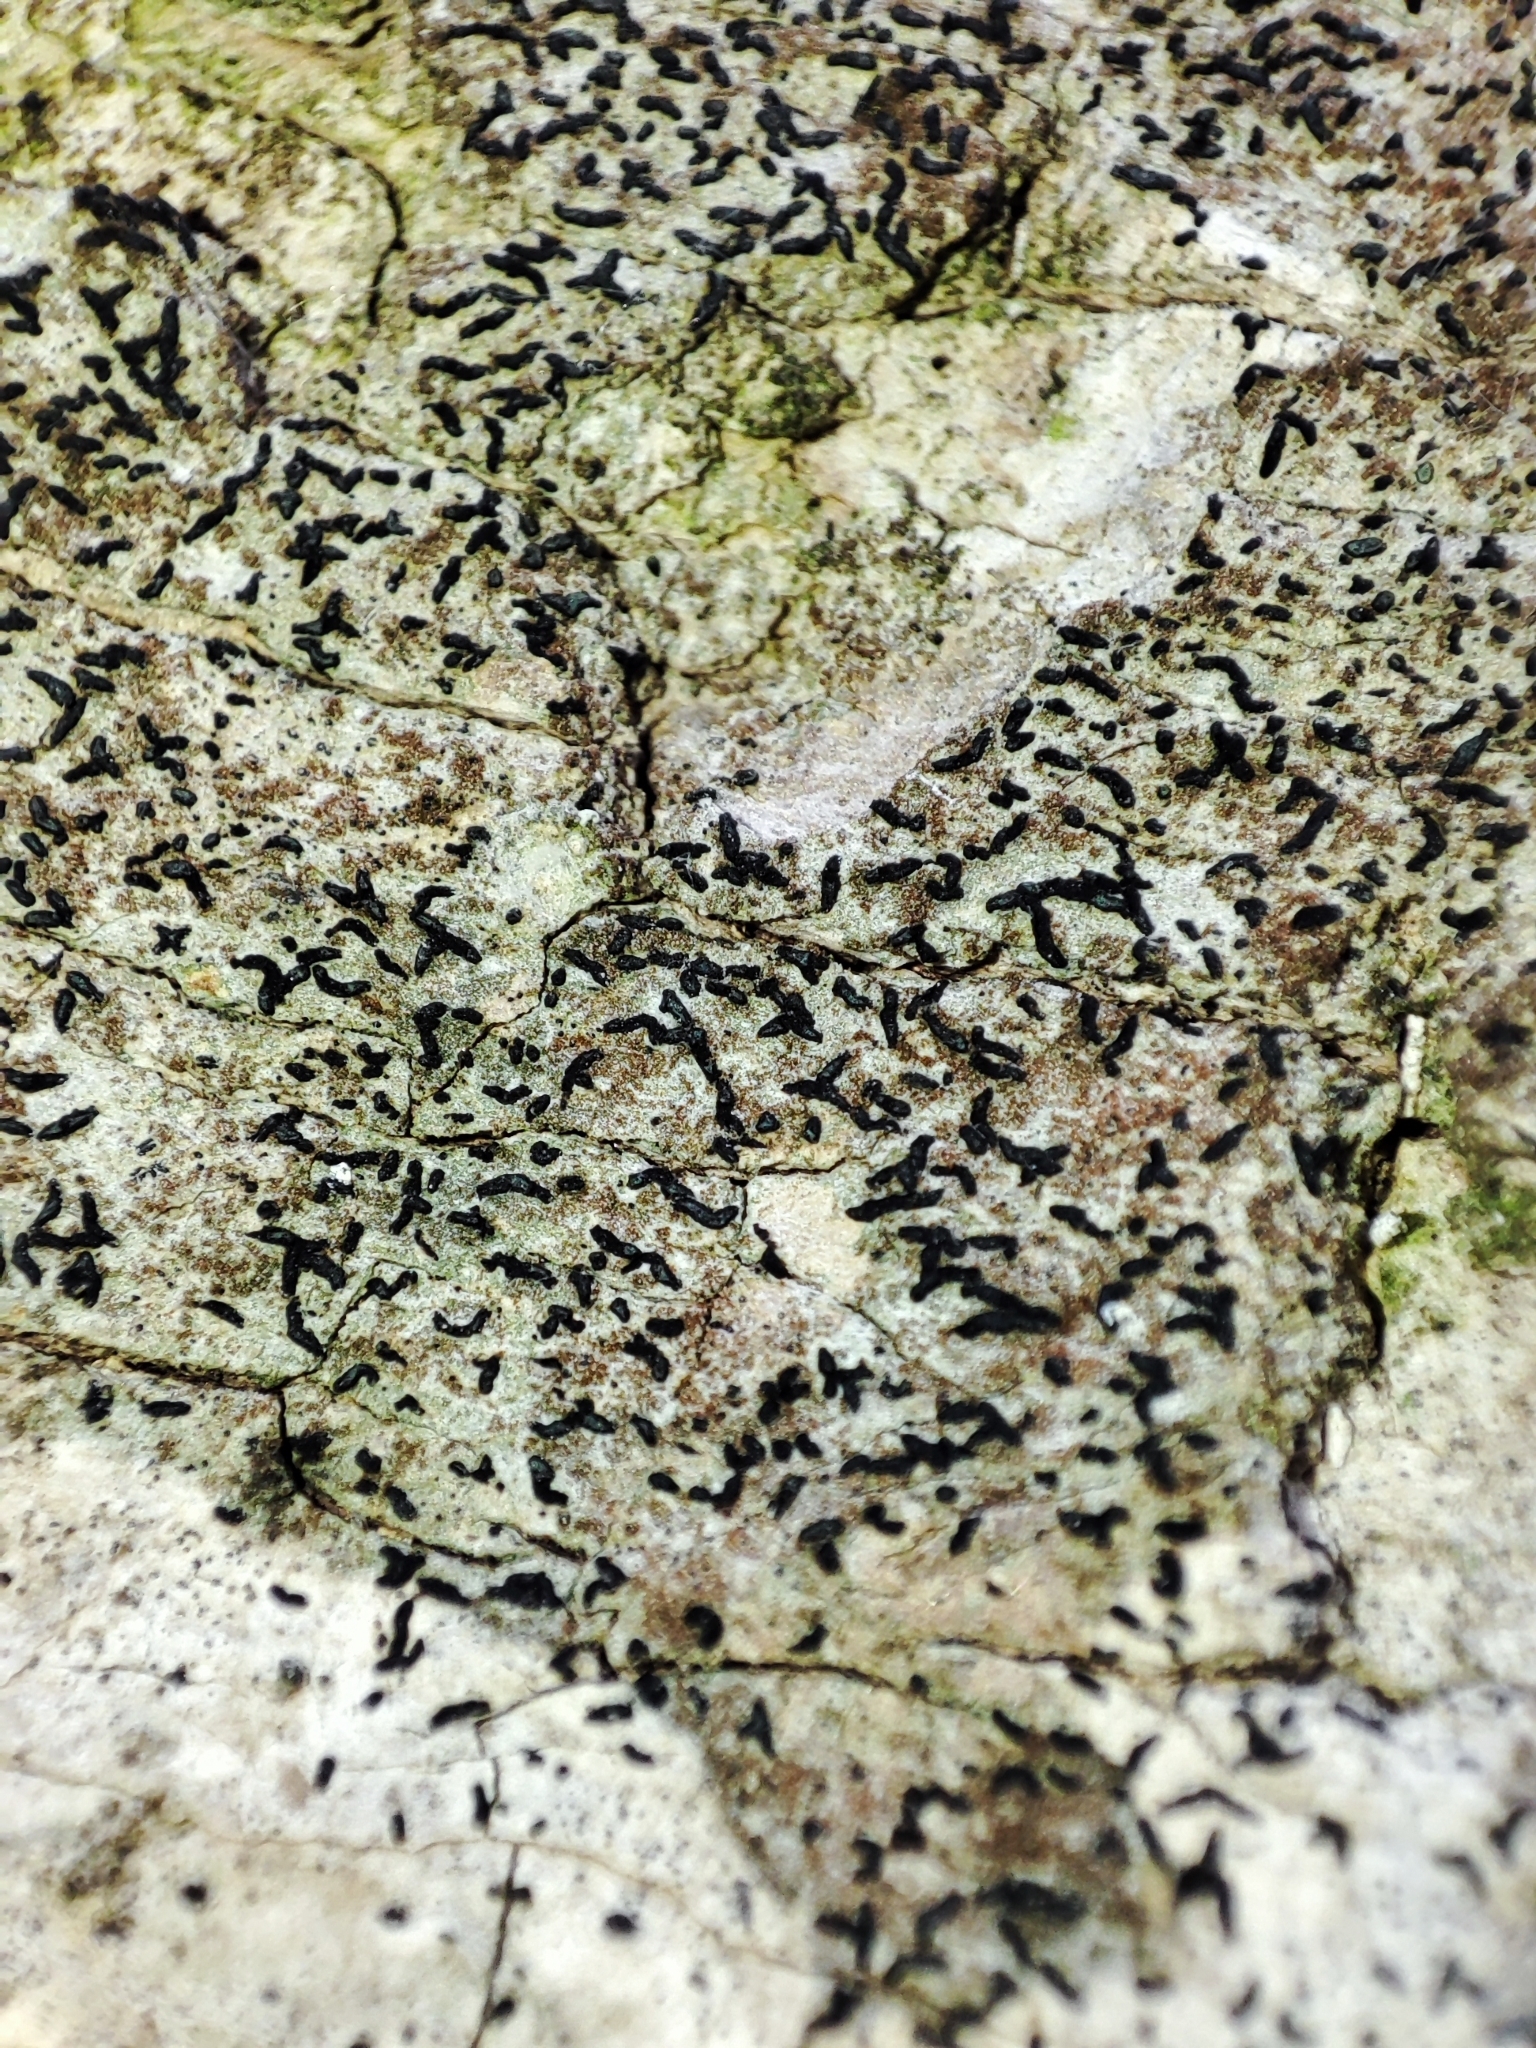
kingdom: Fungi
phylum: Ascomycota
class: Arthoniomycetes
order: Arthoniales
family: Lecanographaceae
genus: Alyxoria
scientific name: Alyxoria varia
